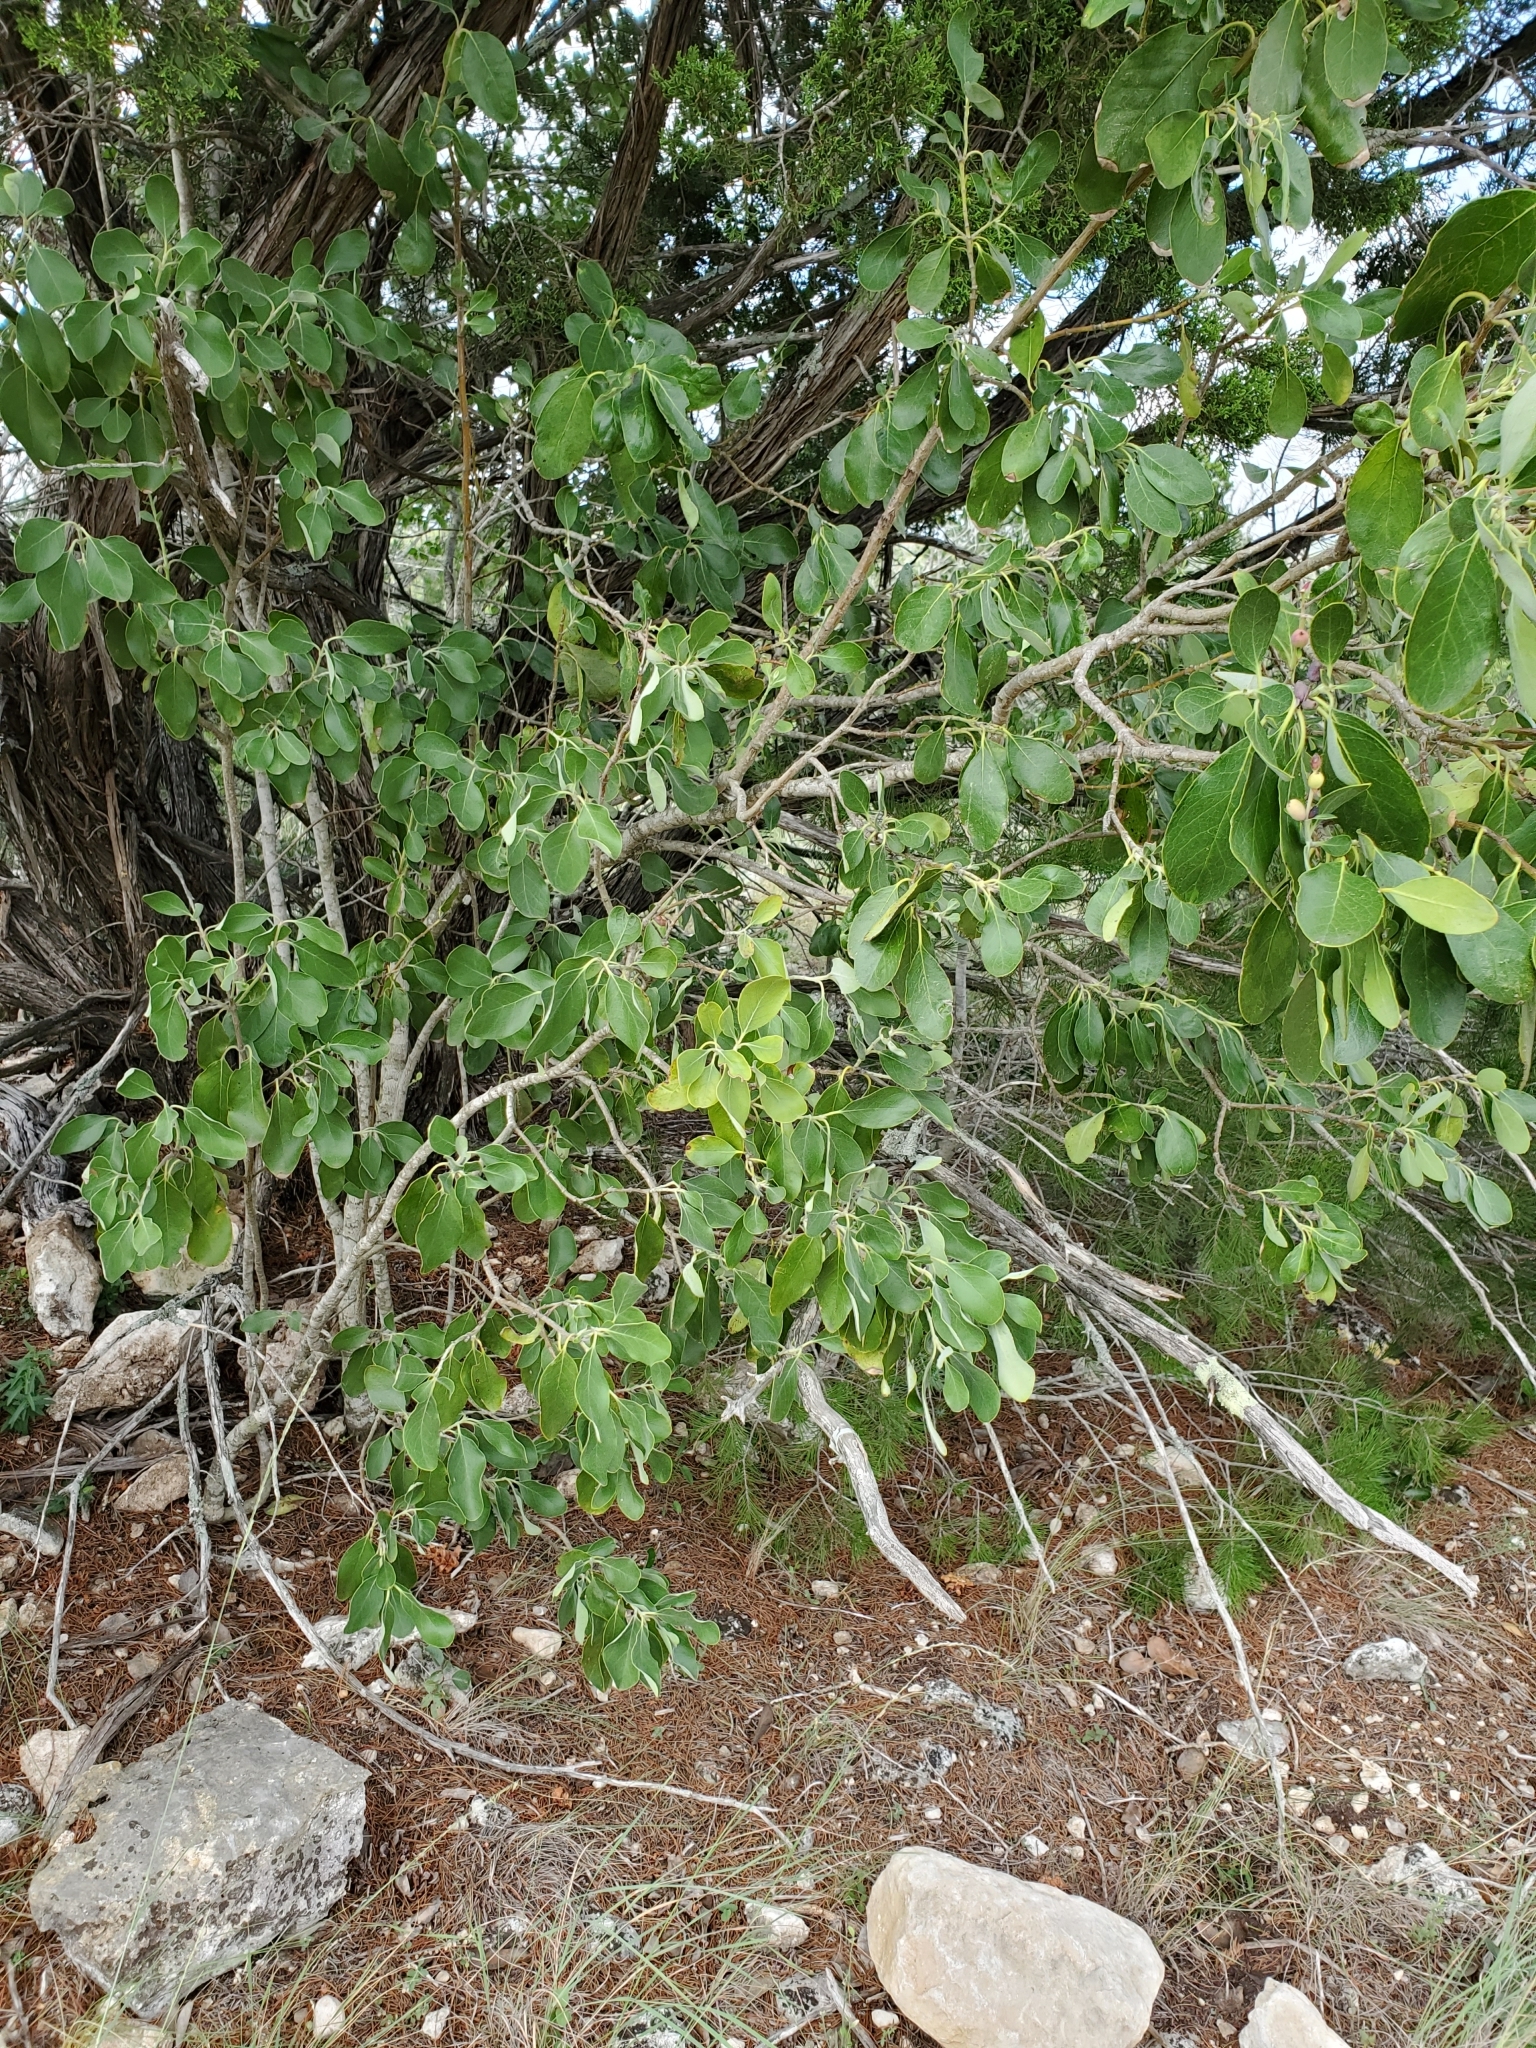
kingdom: Plantae
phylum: Tracheophyta
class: Magnoliopsida
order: Garryales
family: Garryaceae
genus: Garrya
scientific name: Garrya lindheimeri
